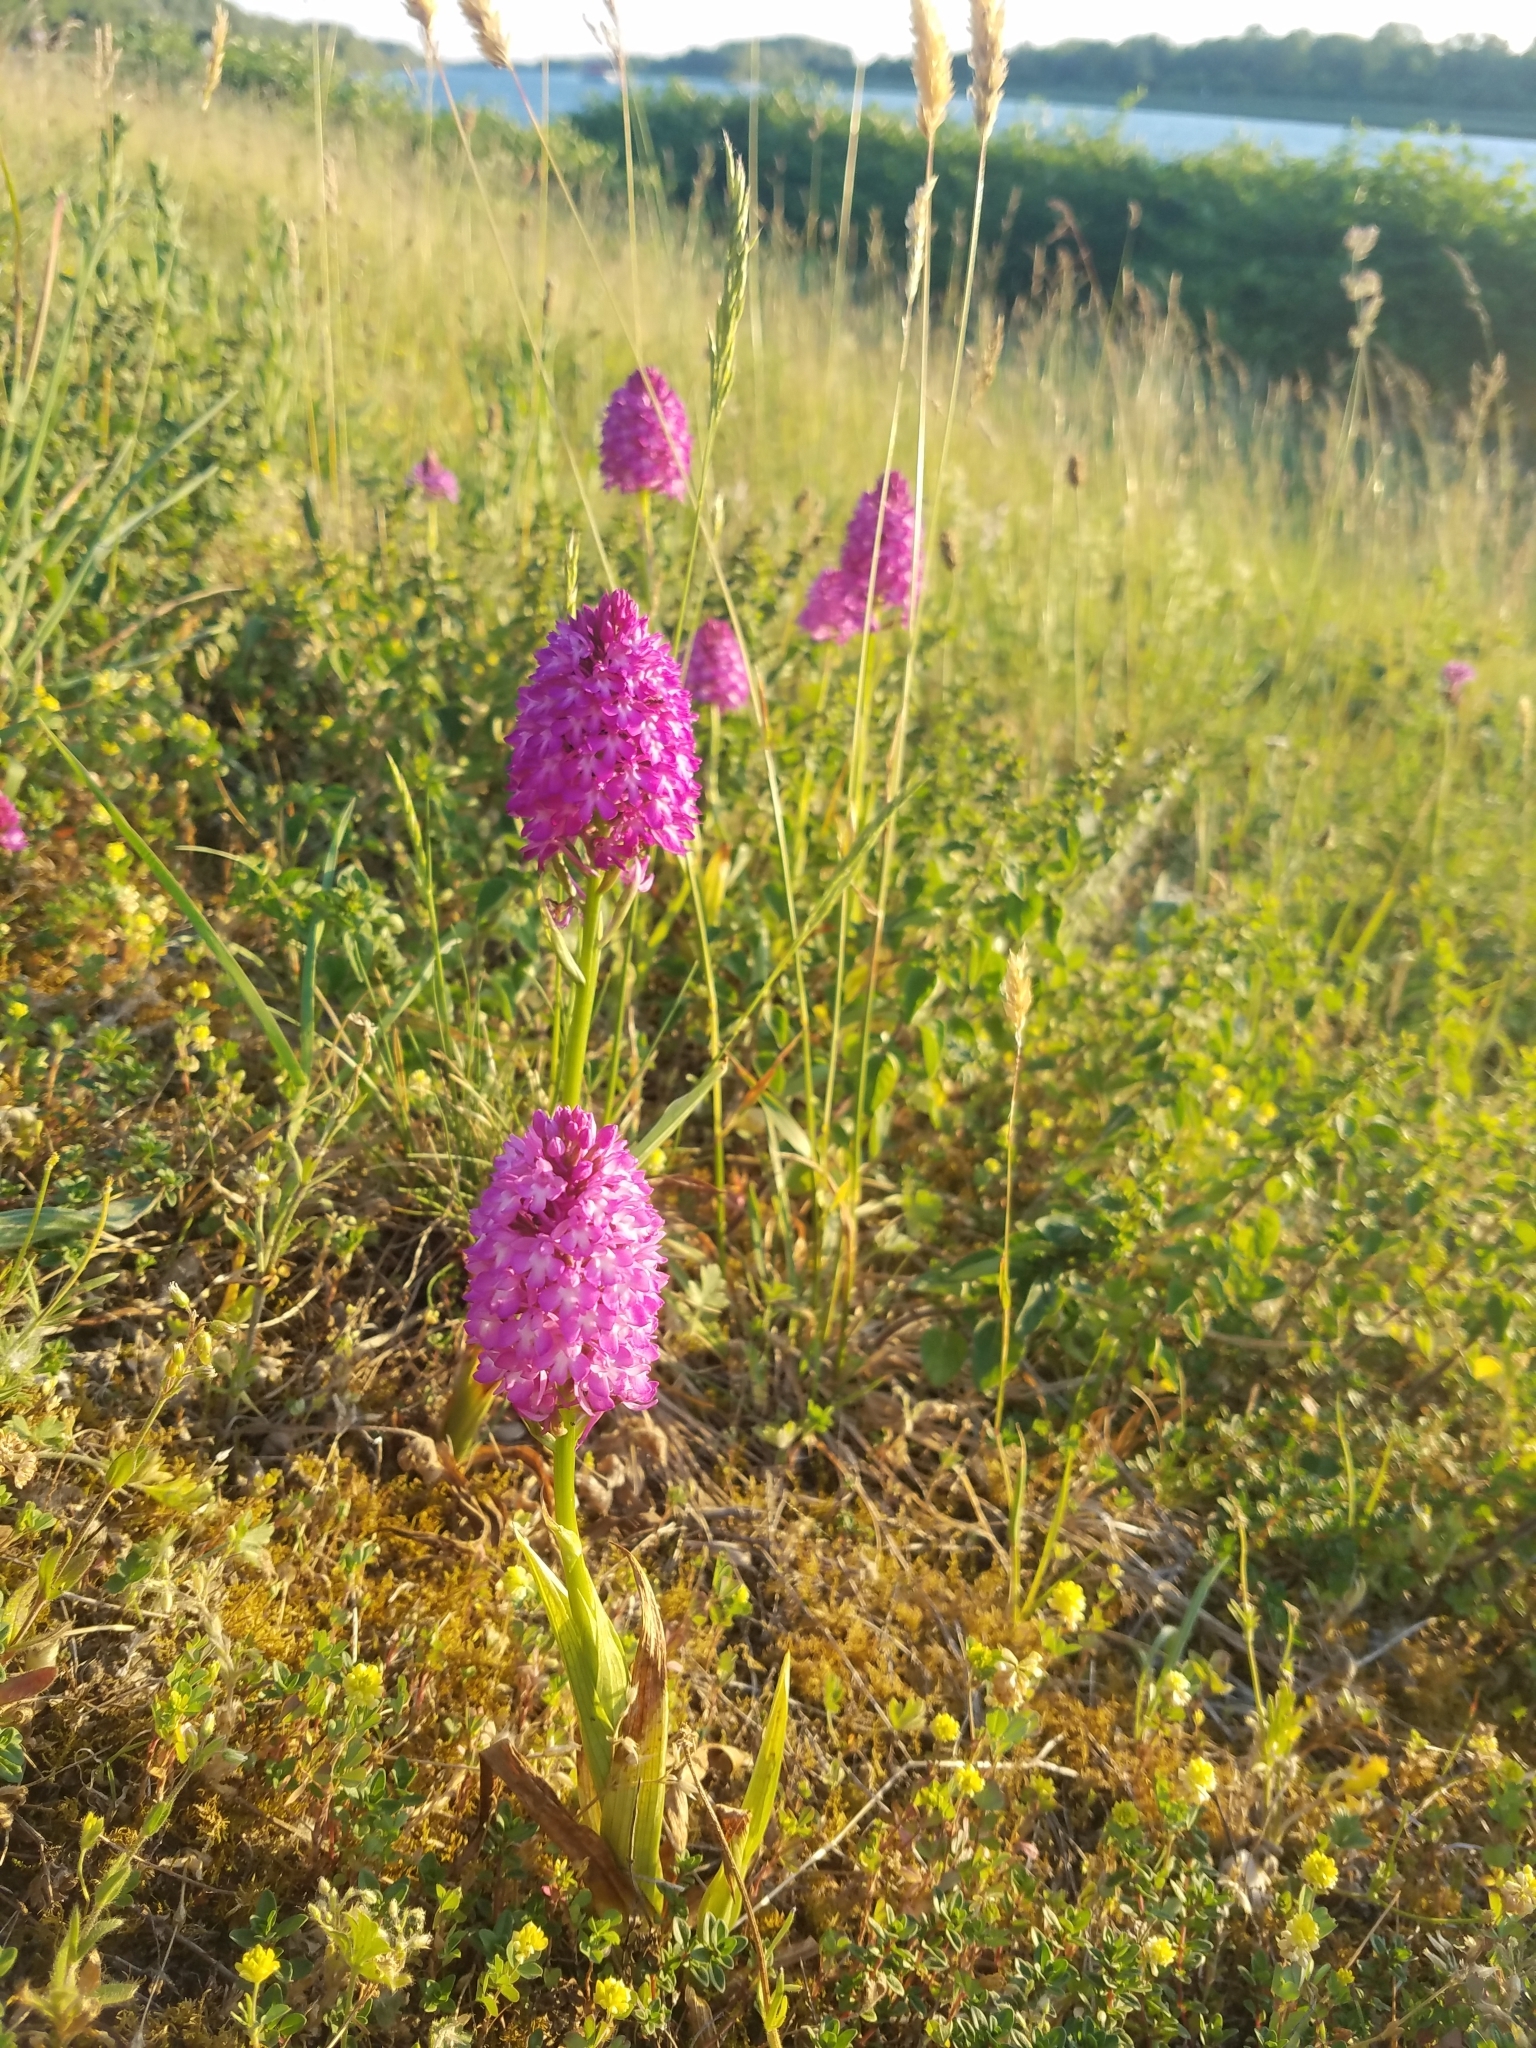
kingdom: Plantae
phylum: Tracheophyta
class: Liliopsida
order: Asparagales
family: Orchidaceae
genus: Anacamptis
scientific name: Anacamptis pyramidalis
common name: Pyramidal orchid
